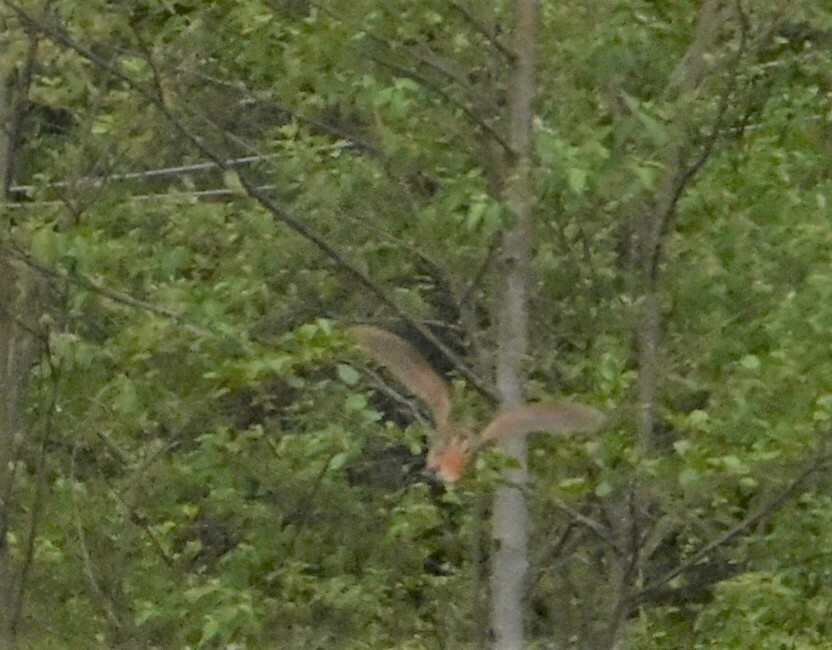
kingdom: Animalia
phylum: Chordata
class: Aves
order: Charadriiformes
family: Scolopacidae
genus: Scolopax
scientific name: Scolopax rusticola
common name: Eurasian woodcock
